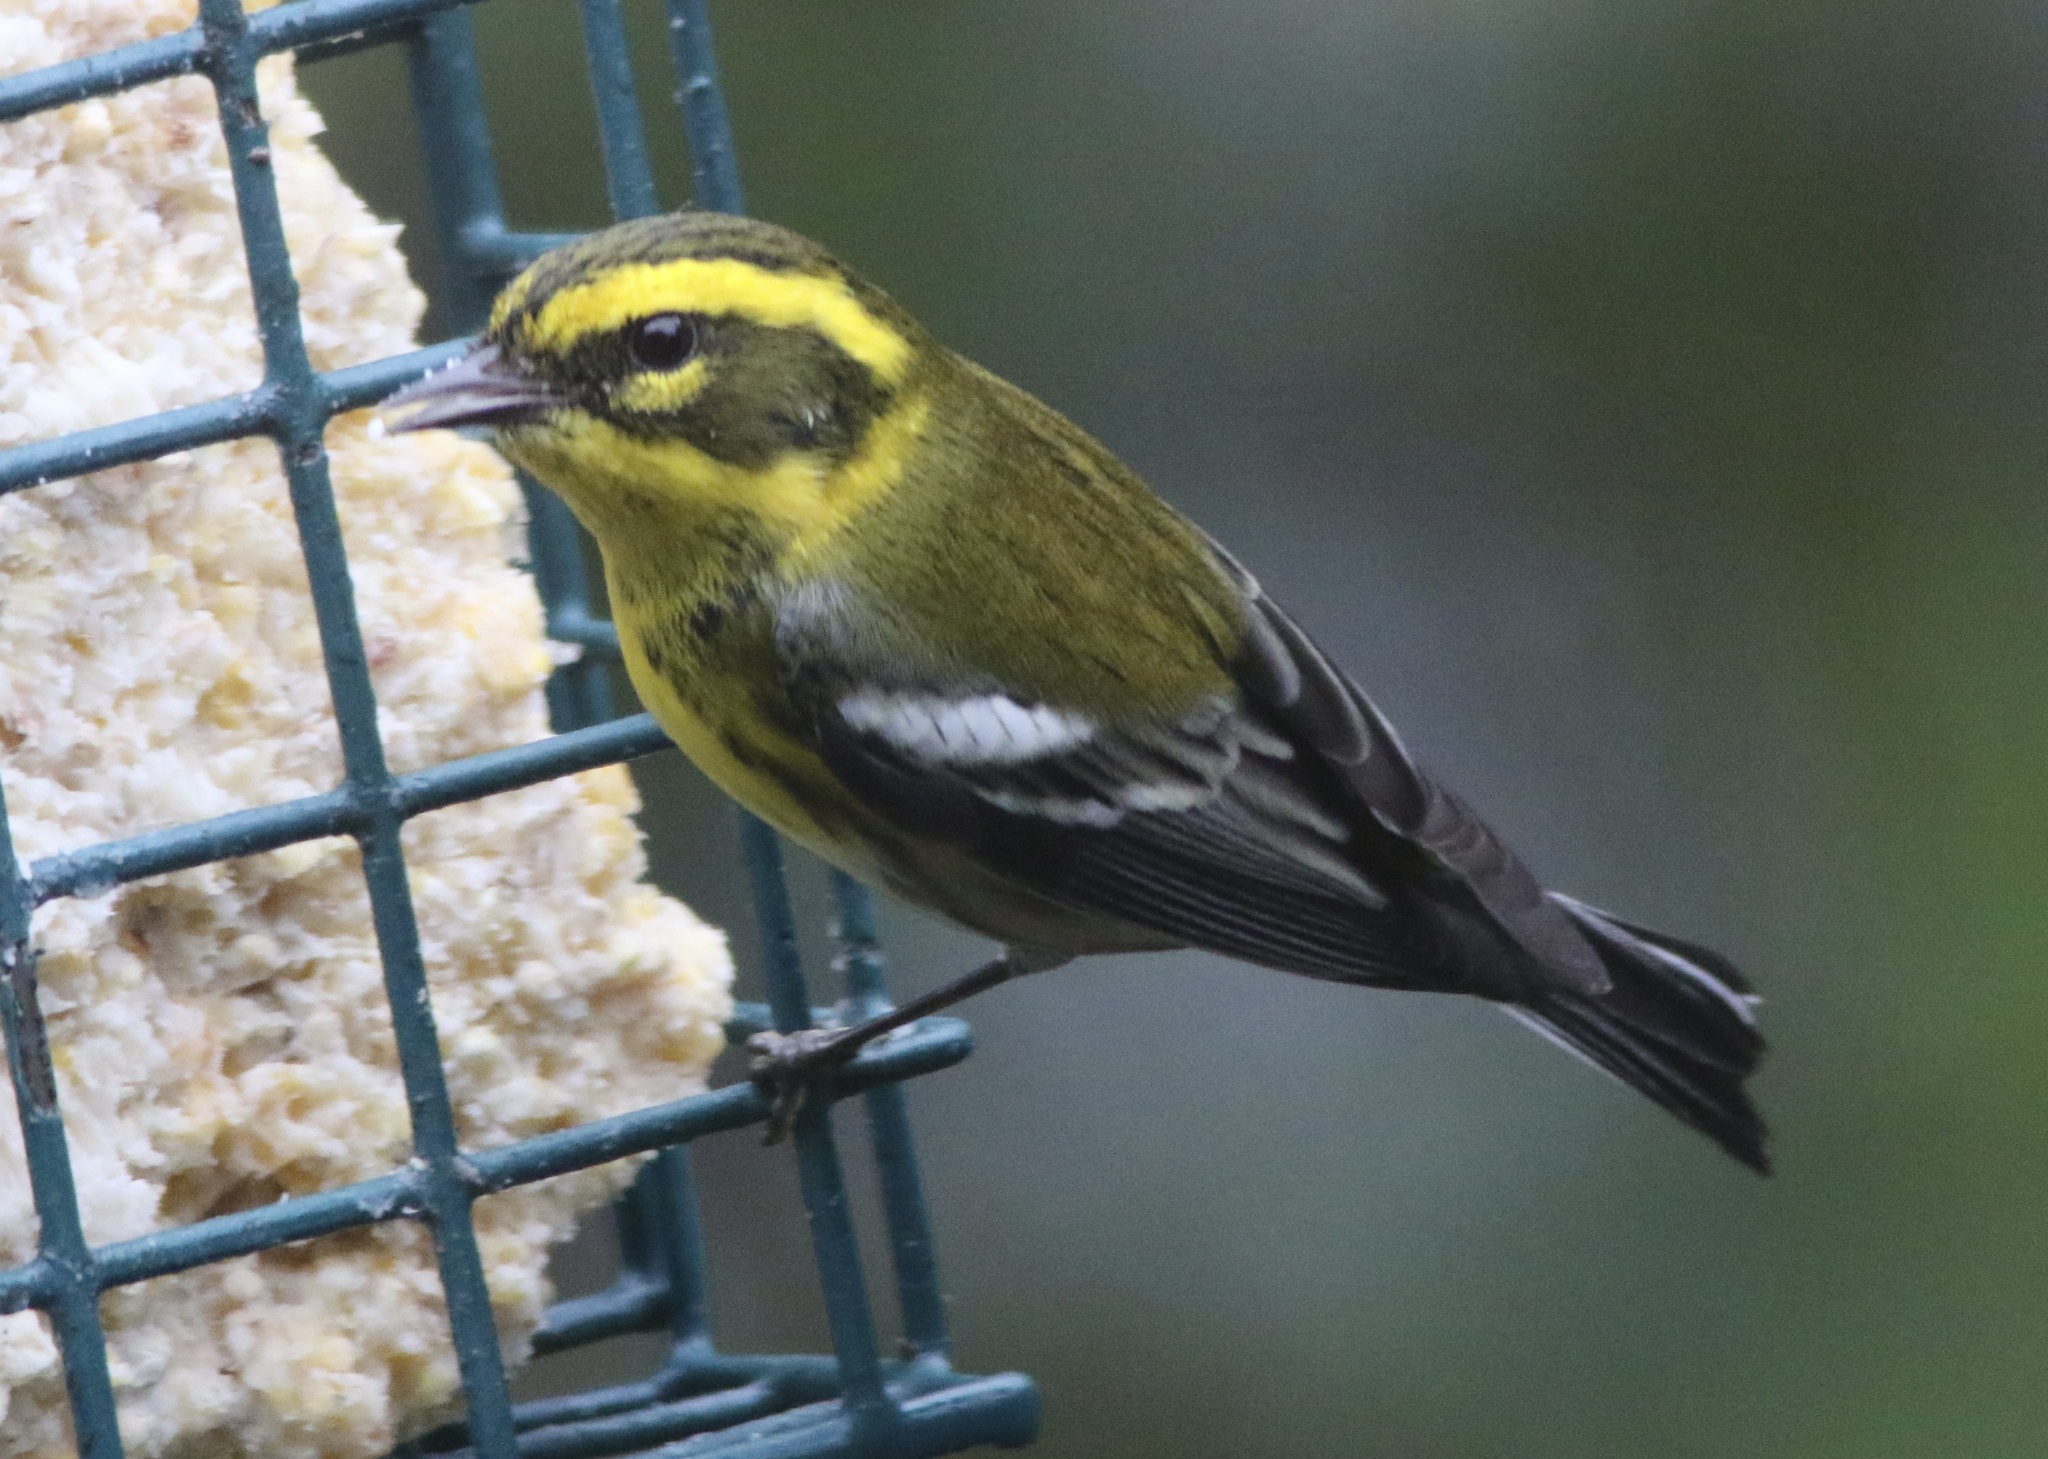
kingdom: Animalia
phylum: Chordata
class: Aves
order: Passeriformes
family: Parulidae
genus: Setophaga
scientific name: Setophaga townsendi
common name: Townsend's warbler
